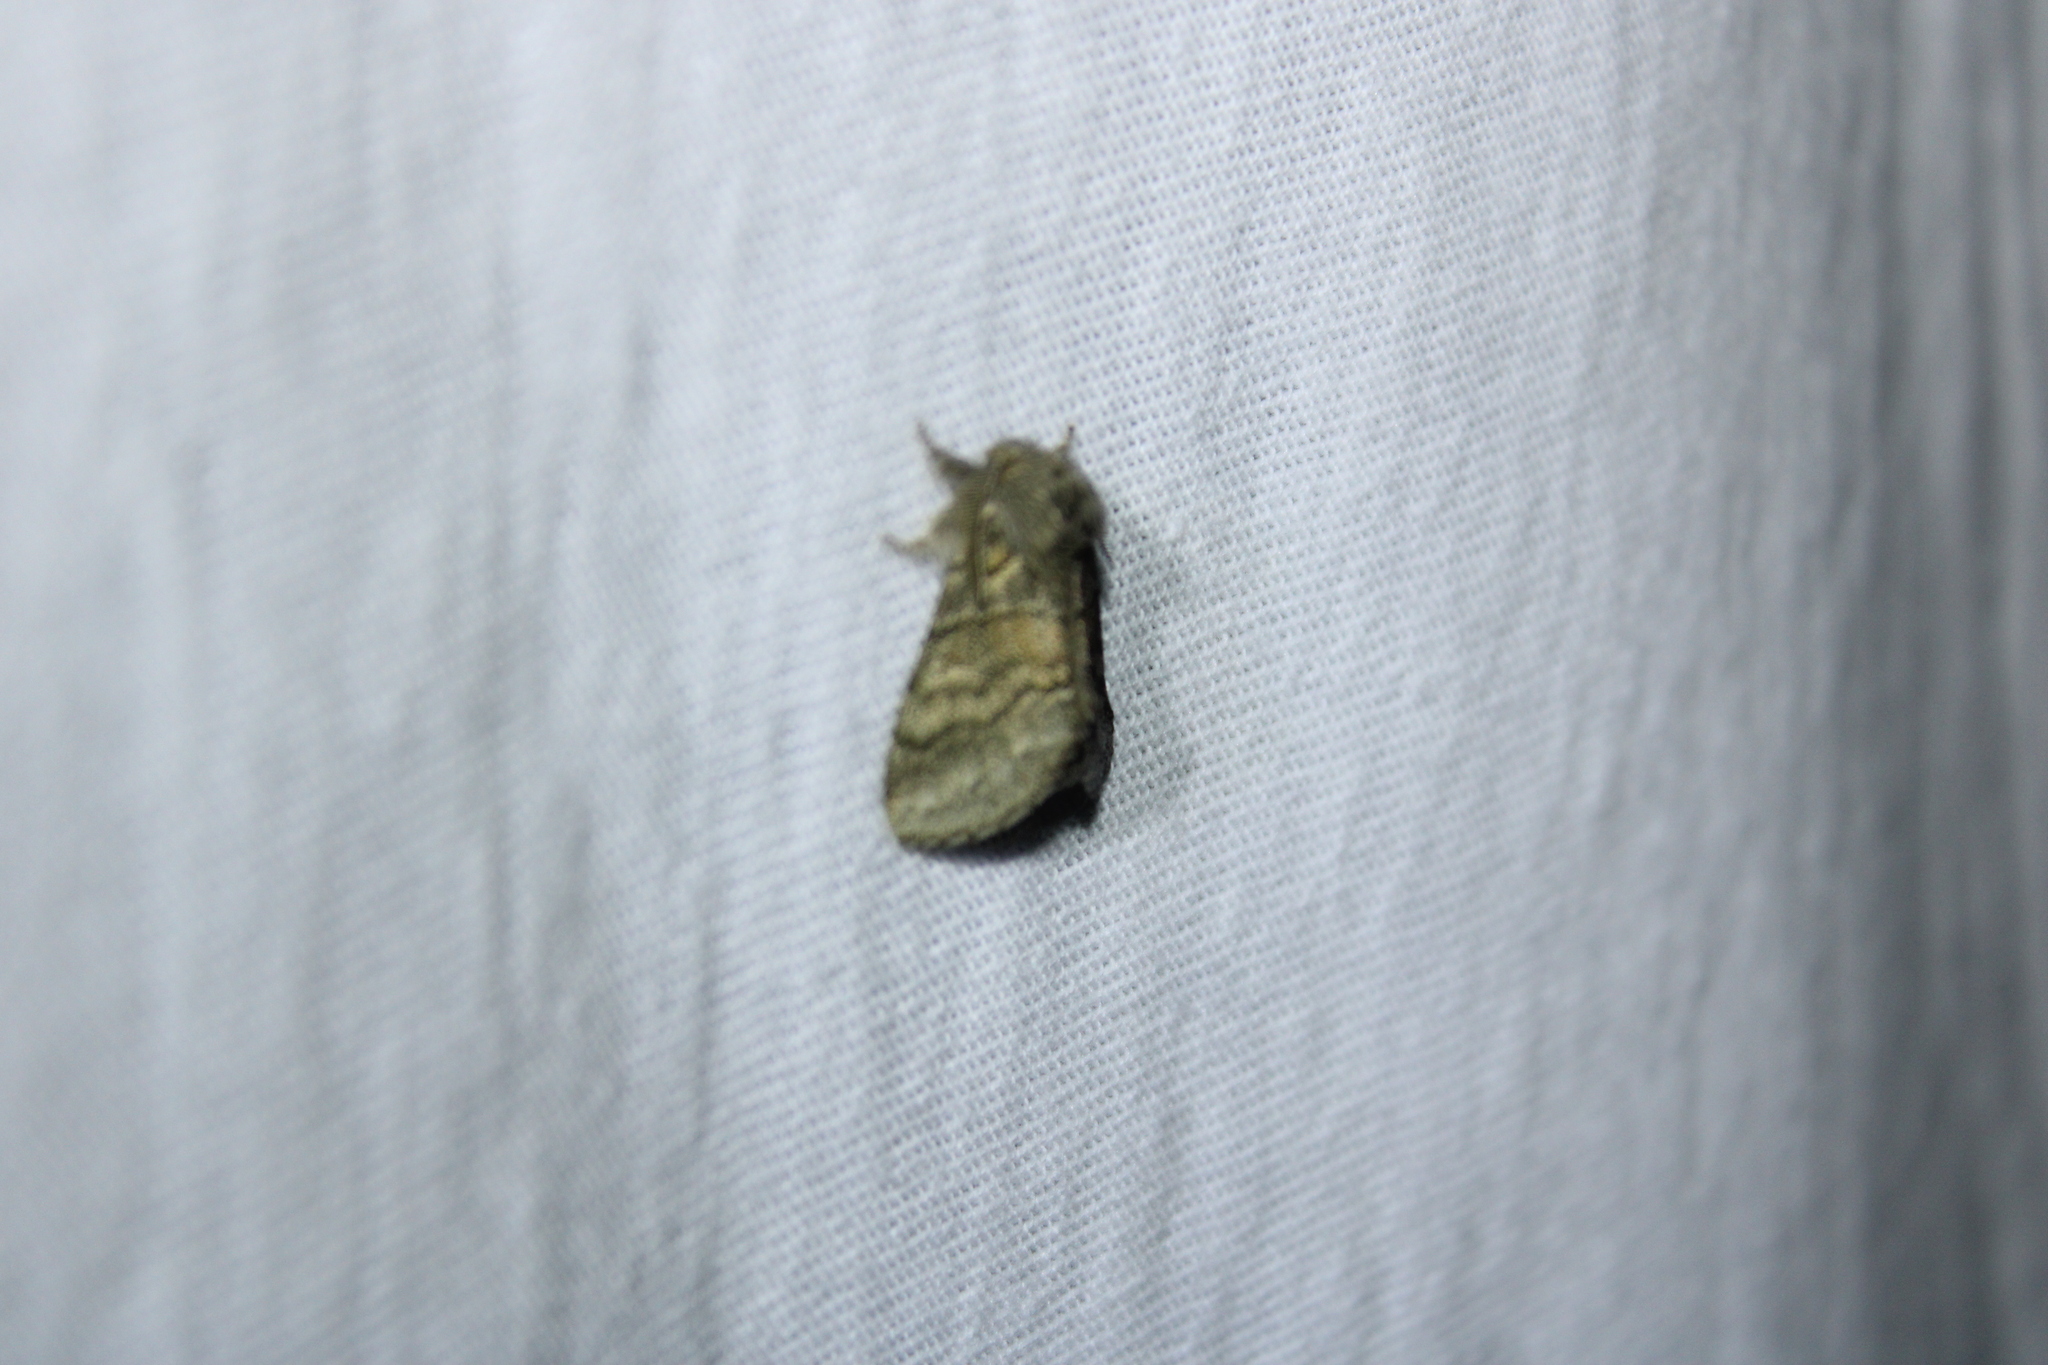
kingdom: Animalia
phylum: Arthropoda
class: Insecta
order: Lepidoptera
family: Notodontidae
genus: Gluphisia
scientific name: Gluphisia septentrionis
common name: Common gluphisia
